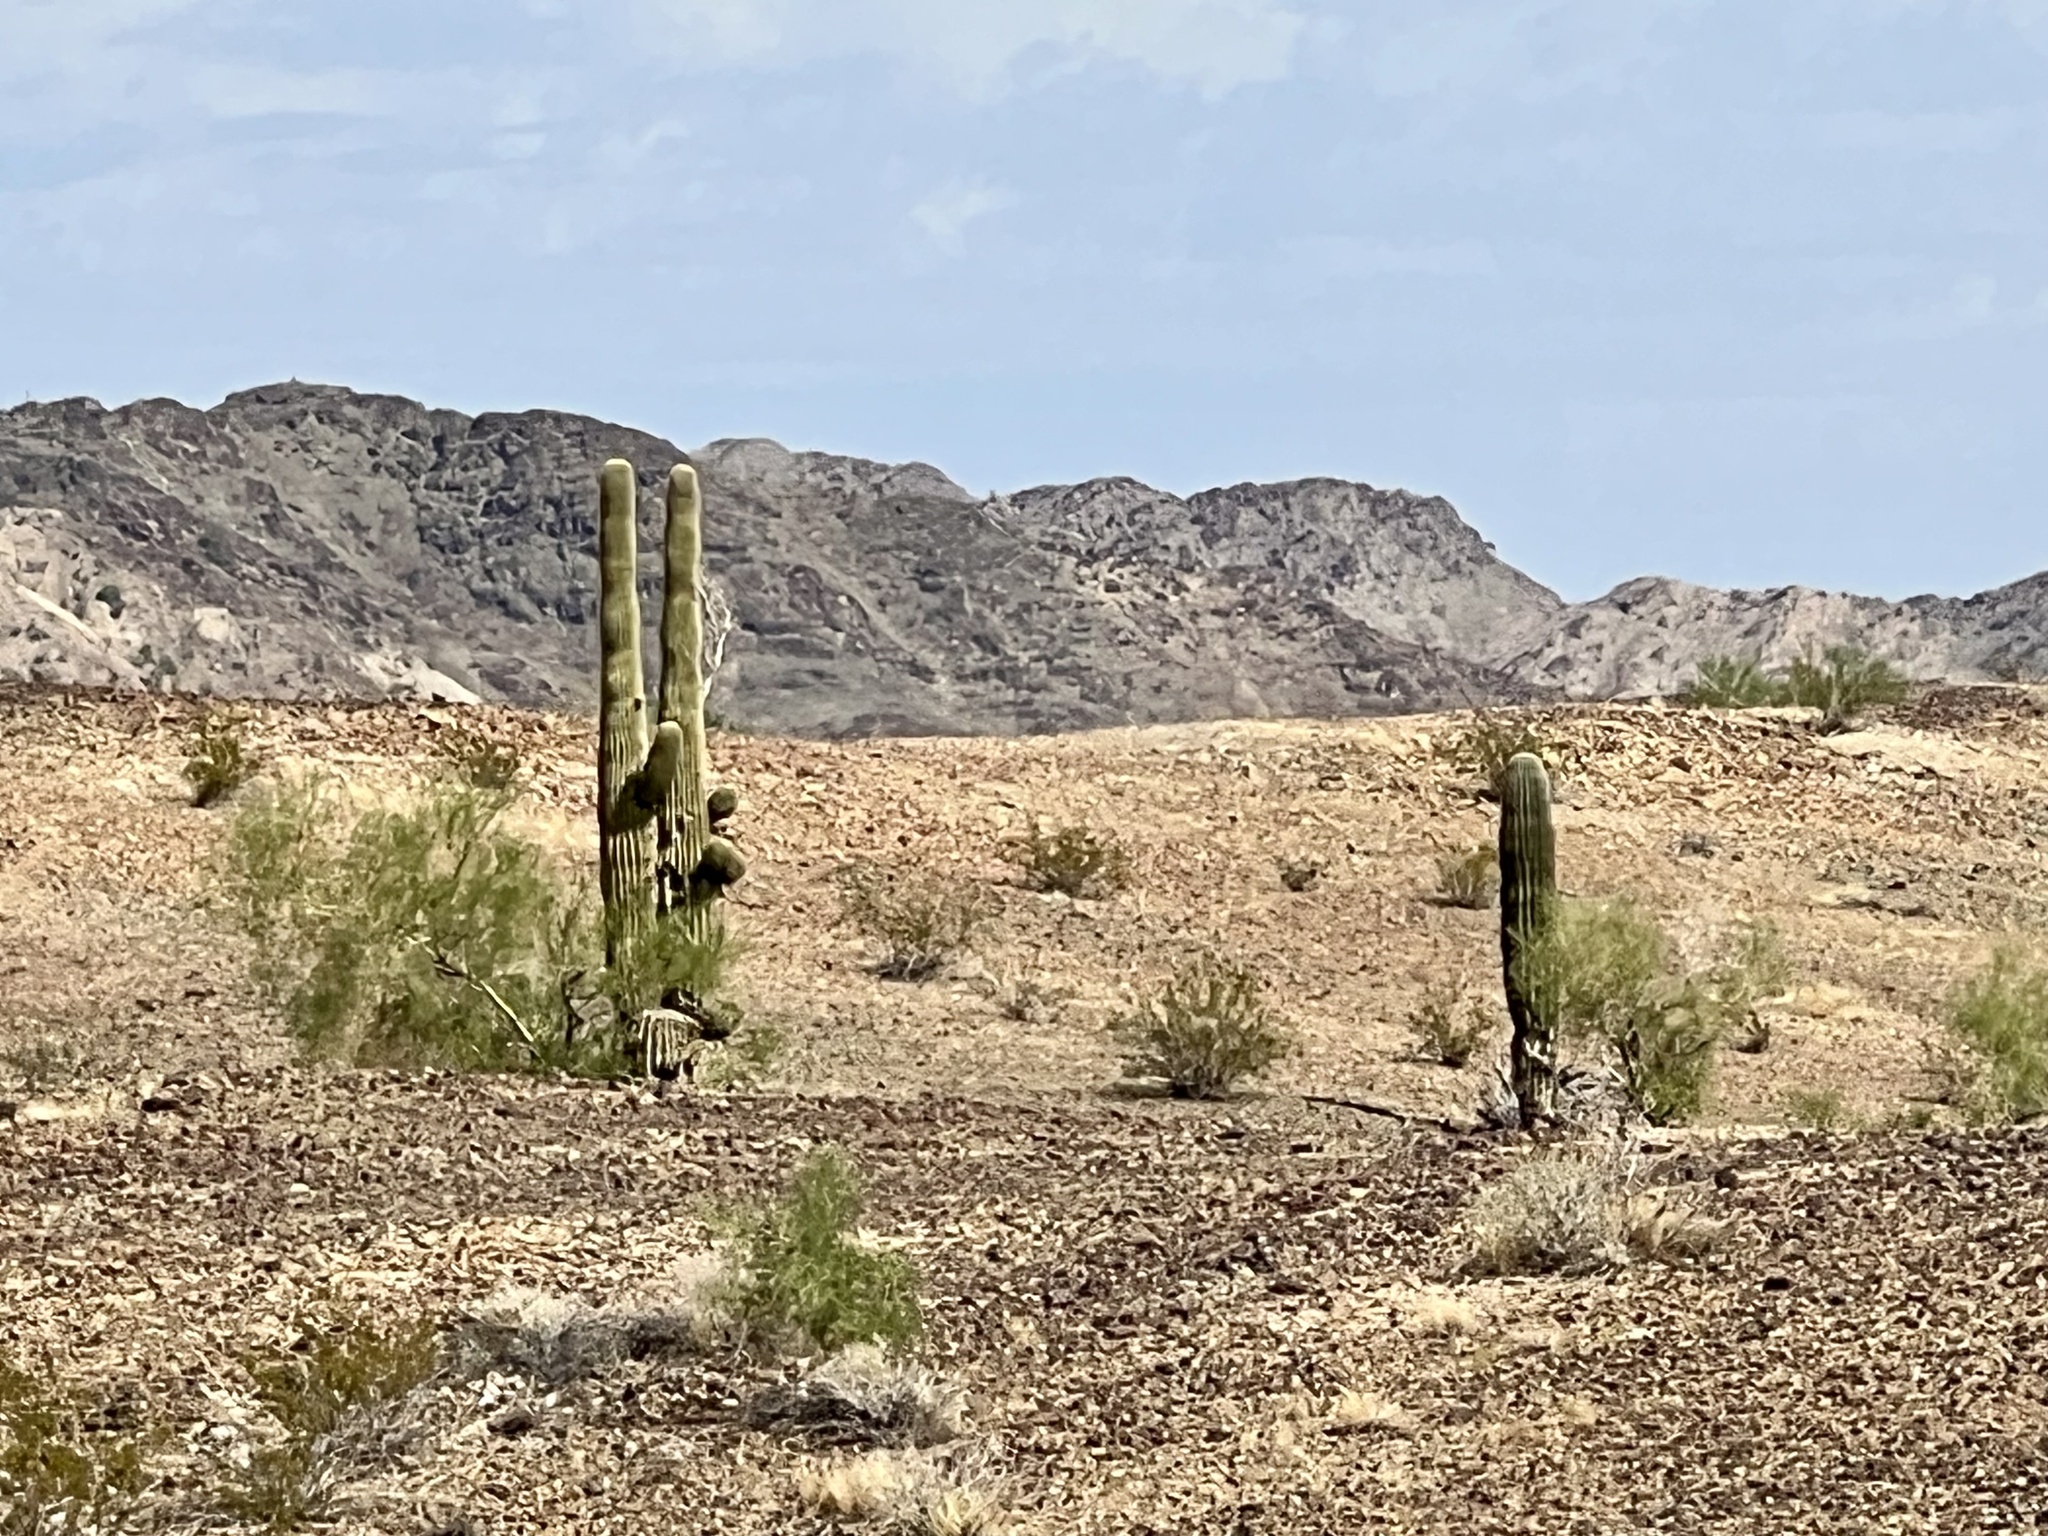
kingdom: Plantae
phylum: Tracheophyta
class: Magnoliopsida
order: Caryophyllales
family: Cactaceae
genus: Carnegiea
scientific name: Carnegiea gigantea
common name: Saguaro
